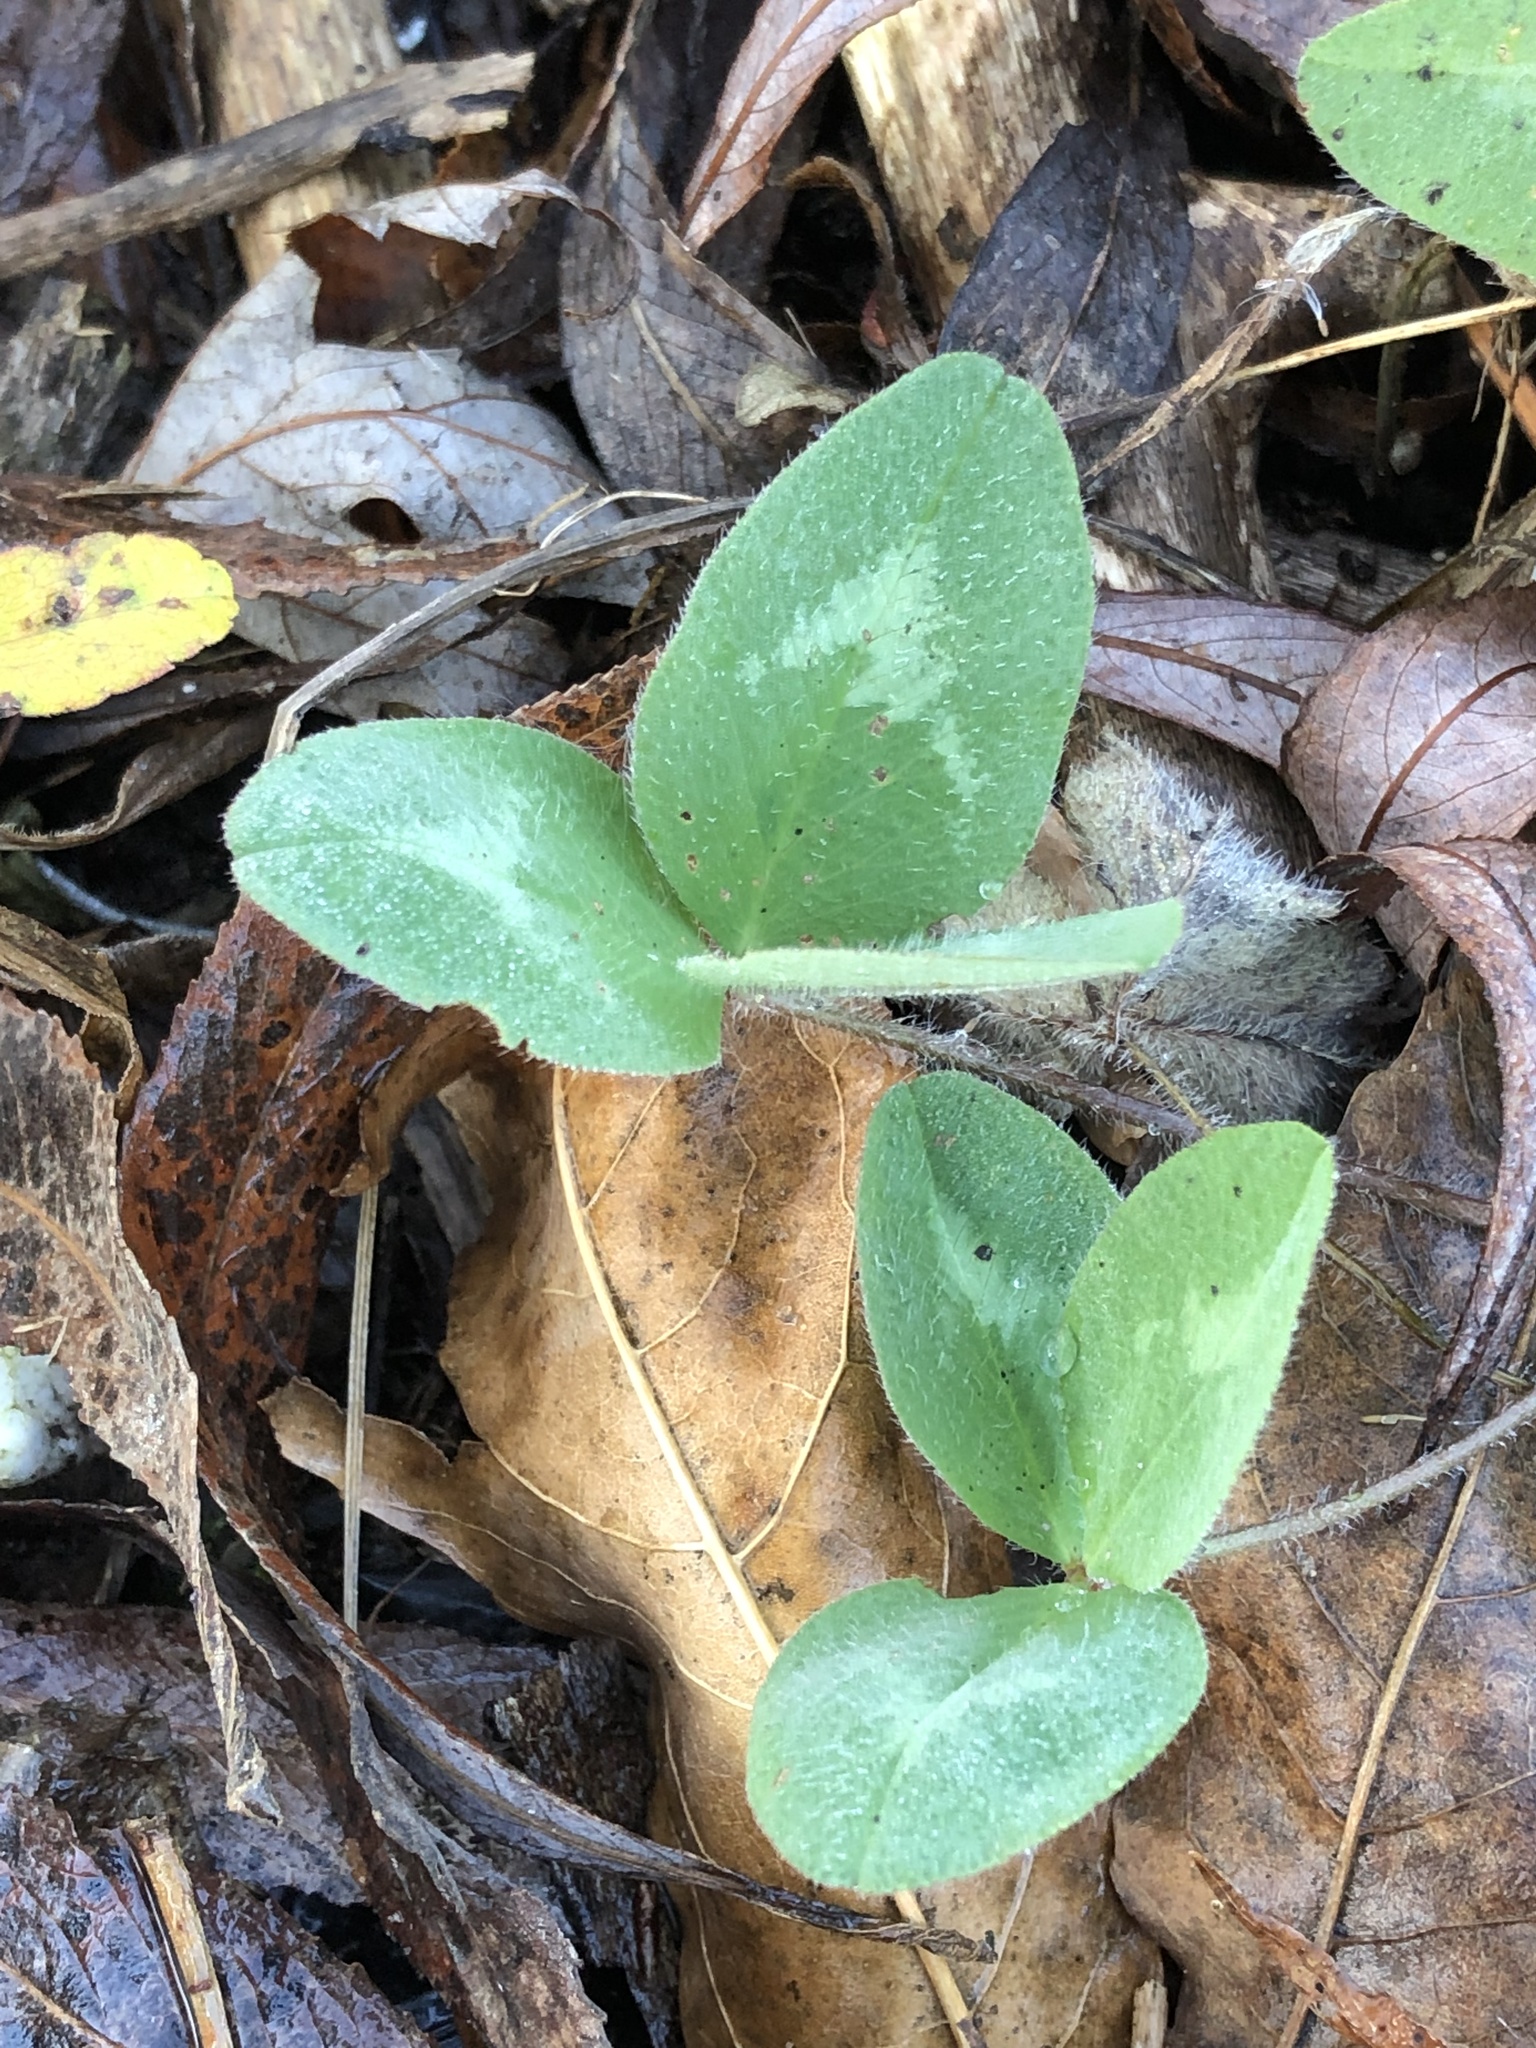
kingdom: Plantae
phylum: Tracheophyta
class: Magnoliopsida
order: Fabales
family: Fabaceae
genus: Trifolium
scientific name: Trifolium pratense
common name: Red clover
